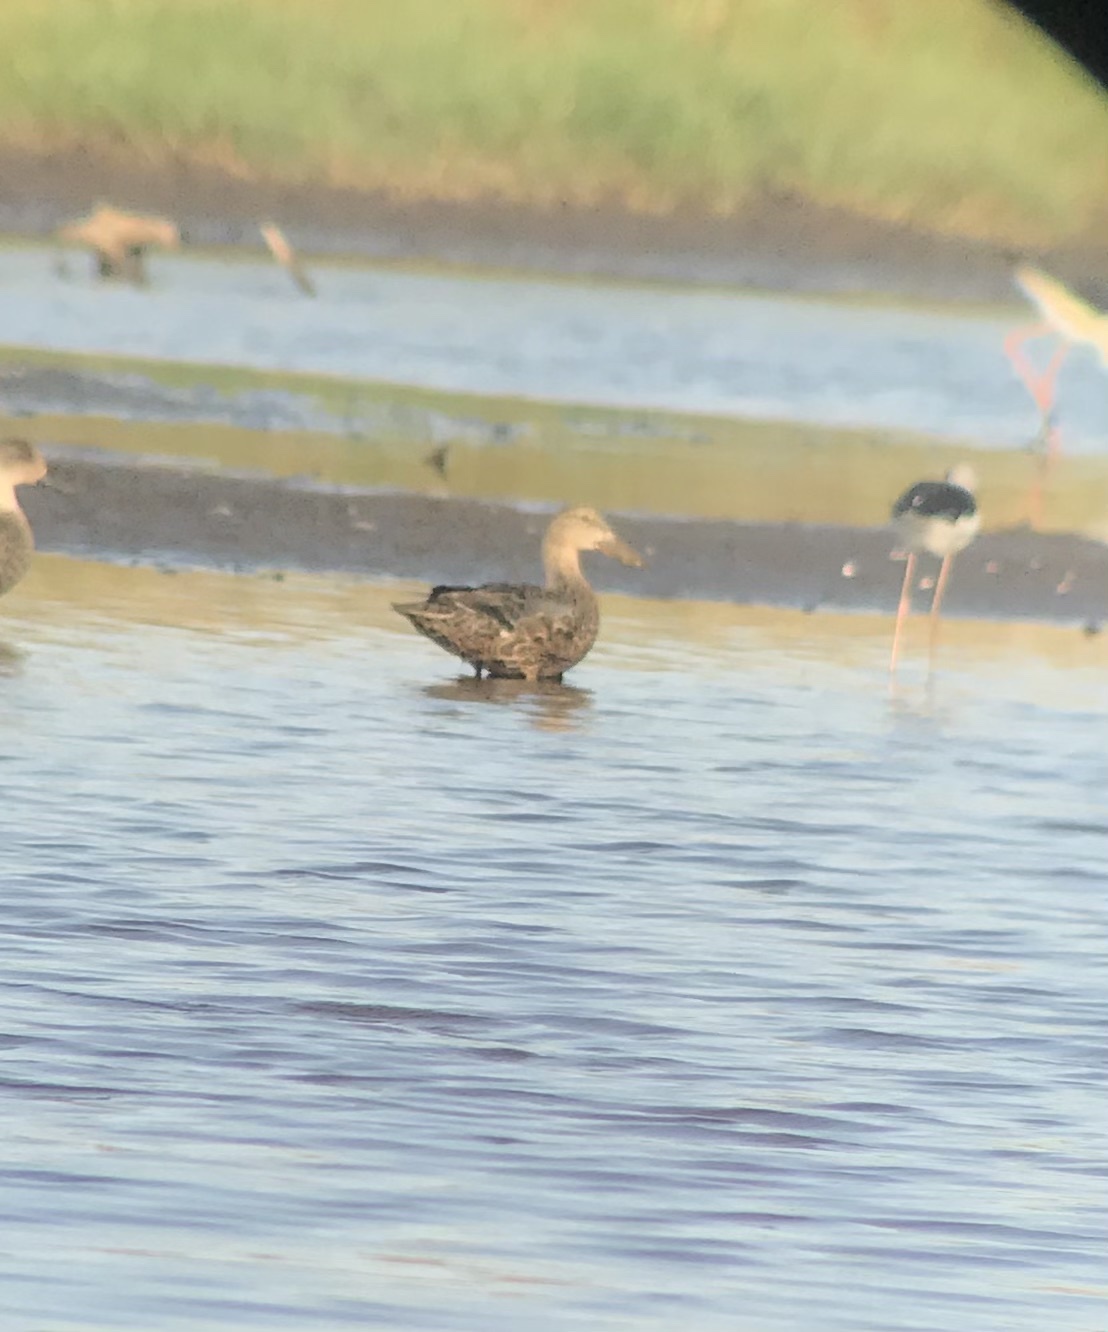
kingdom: Animalia
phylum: Chordata
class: Aves
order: Anseriformes
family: Anatidae
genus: Spatula
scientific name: Spatula rhynchotis
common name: Australian shoveler
